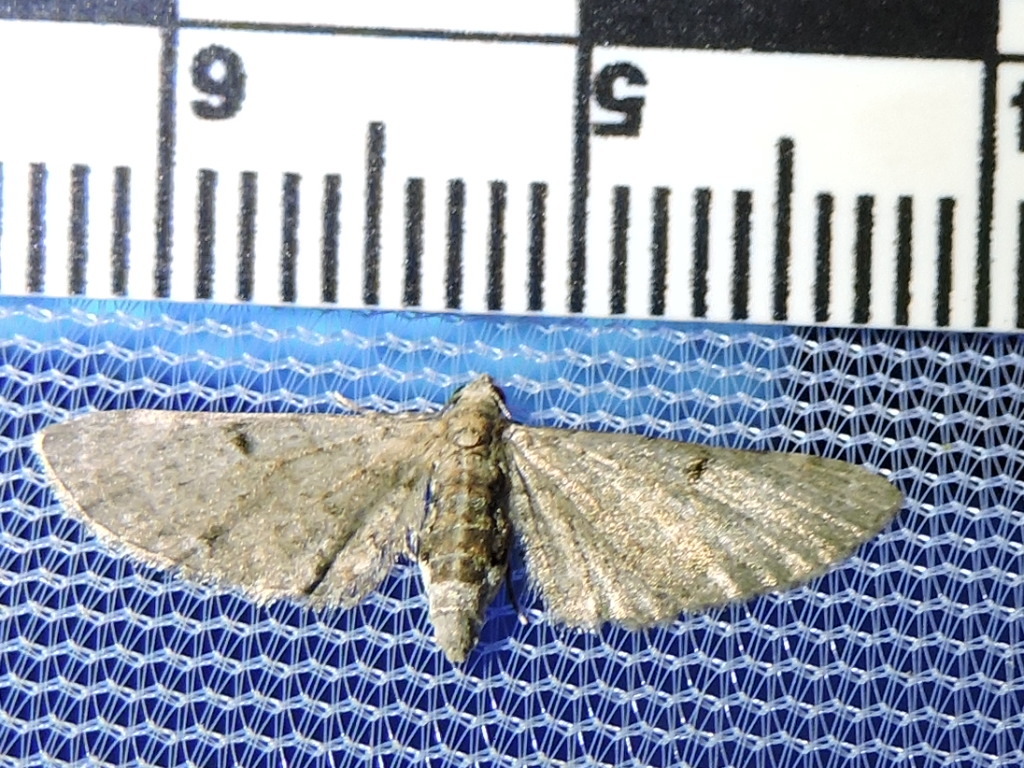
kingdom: Animalia
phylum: Arthropoda
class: Insecta
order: Lepidoptera
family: Geometridae
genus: Eupithecia
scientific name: Eupithecia miserulata
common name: Common eupithecia
